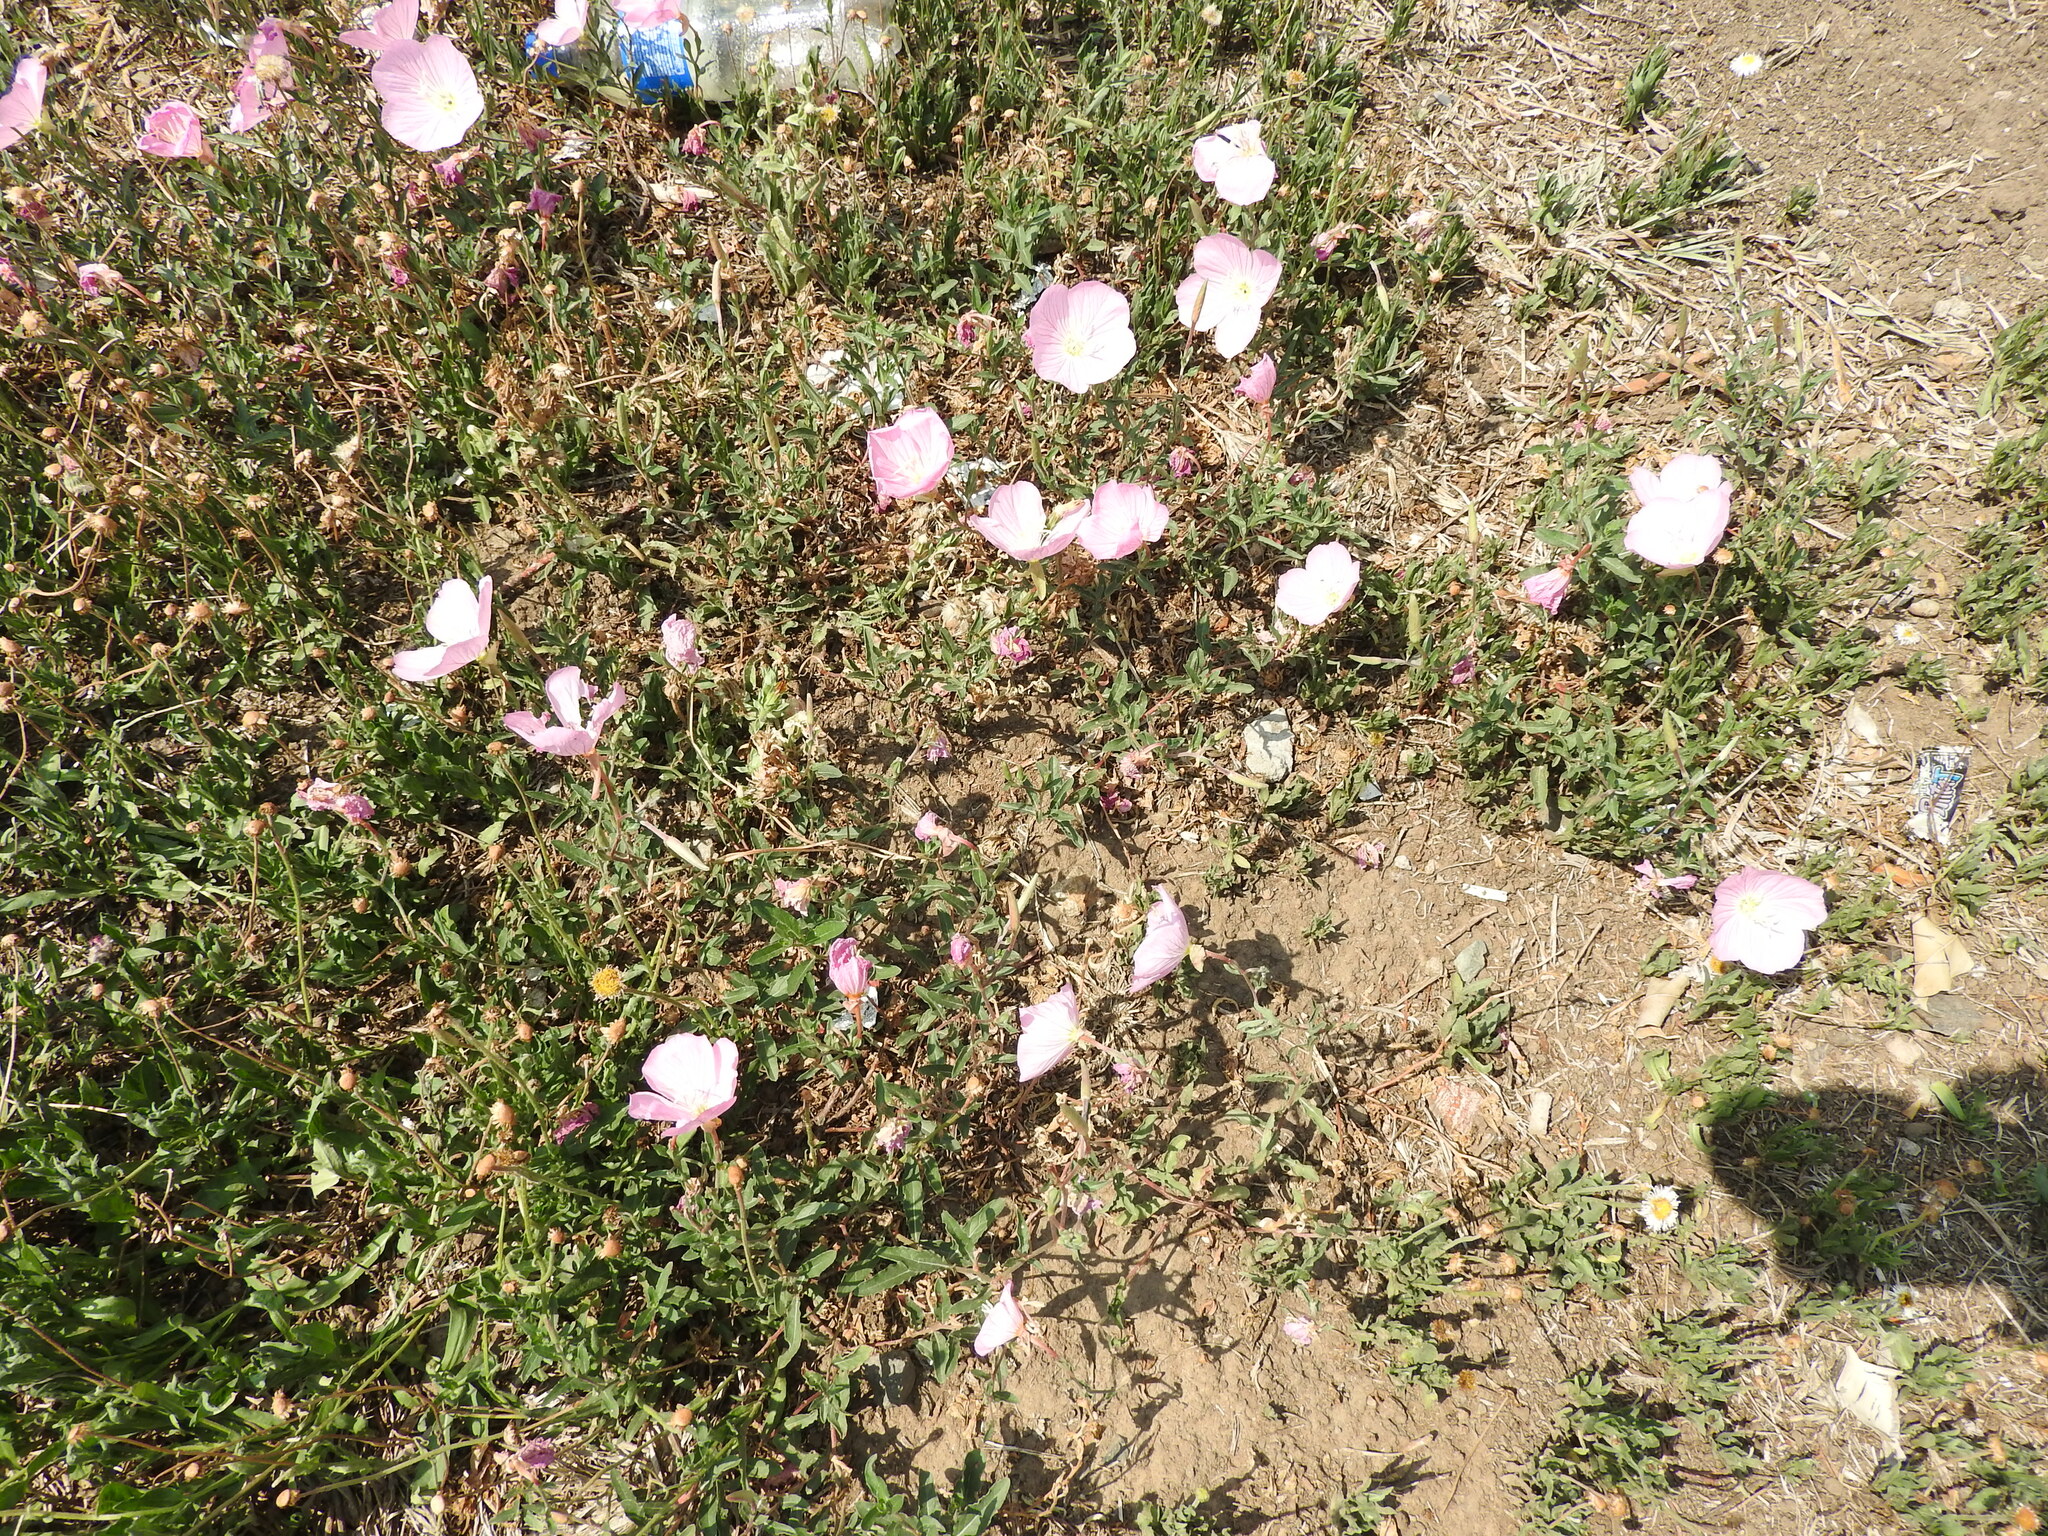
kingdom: Plantae
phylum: Tracheophyta
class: Magnoliopsida
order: Myrtales
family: Onagraceae
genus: Oenothera
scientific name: Oenothera speciosa
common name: White evening-primrose
